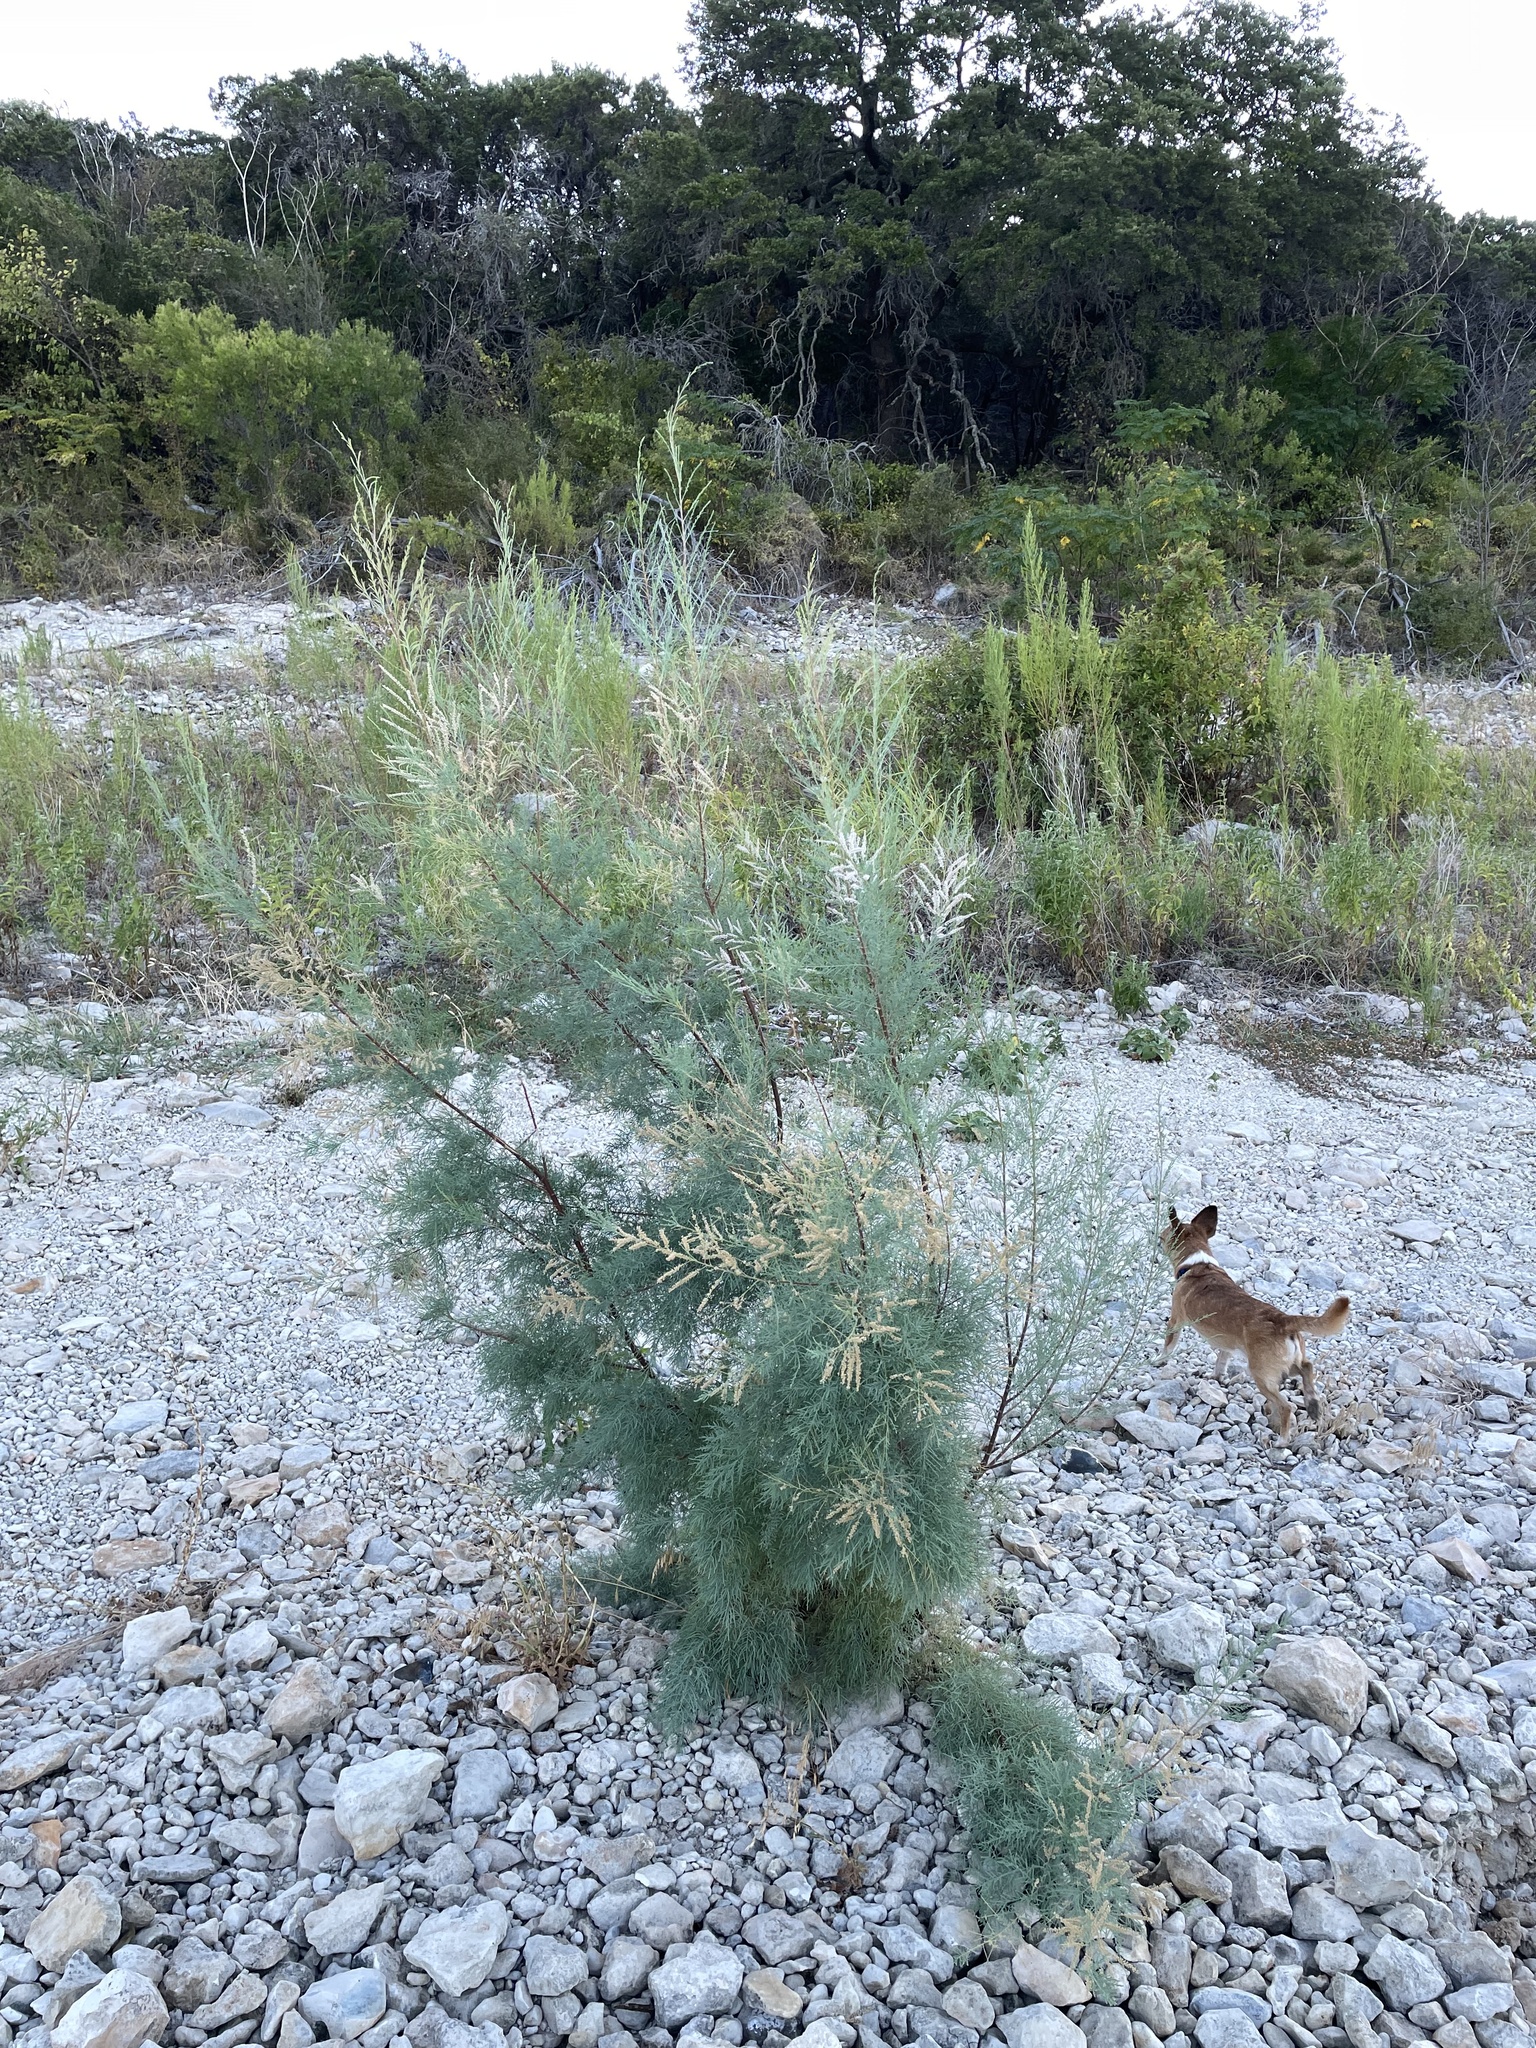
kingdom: Plantae
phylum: Tracheophyta
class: Magnoliopsida
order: Caryophyllales
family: Tamaricaceae
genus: Tamarix
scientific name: Tamarix ramosissima
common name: Pink tamarisk
